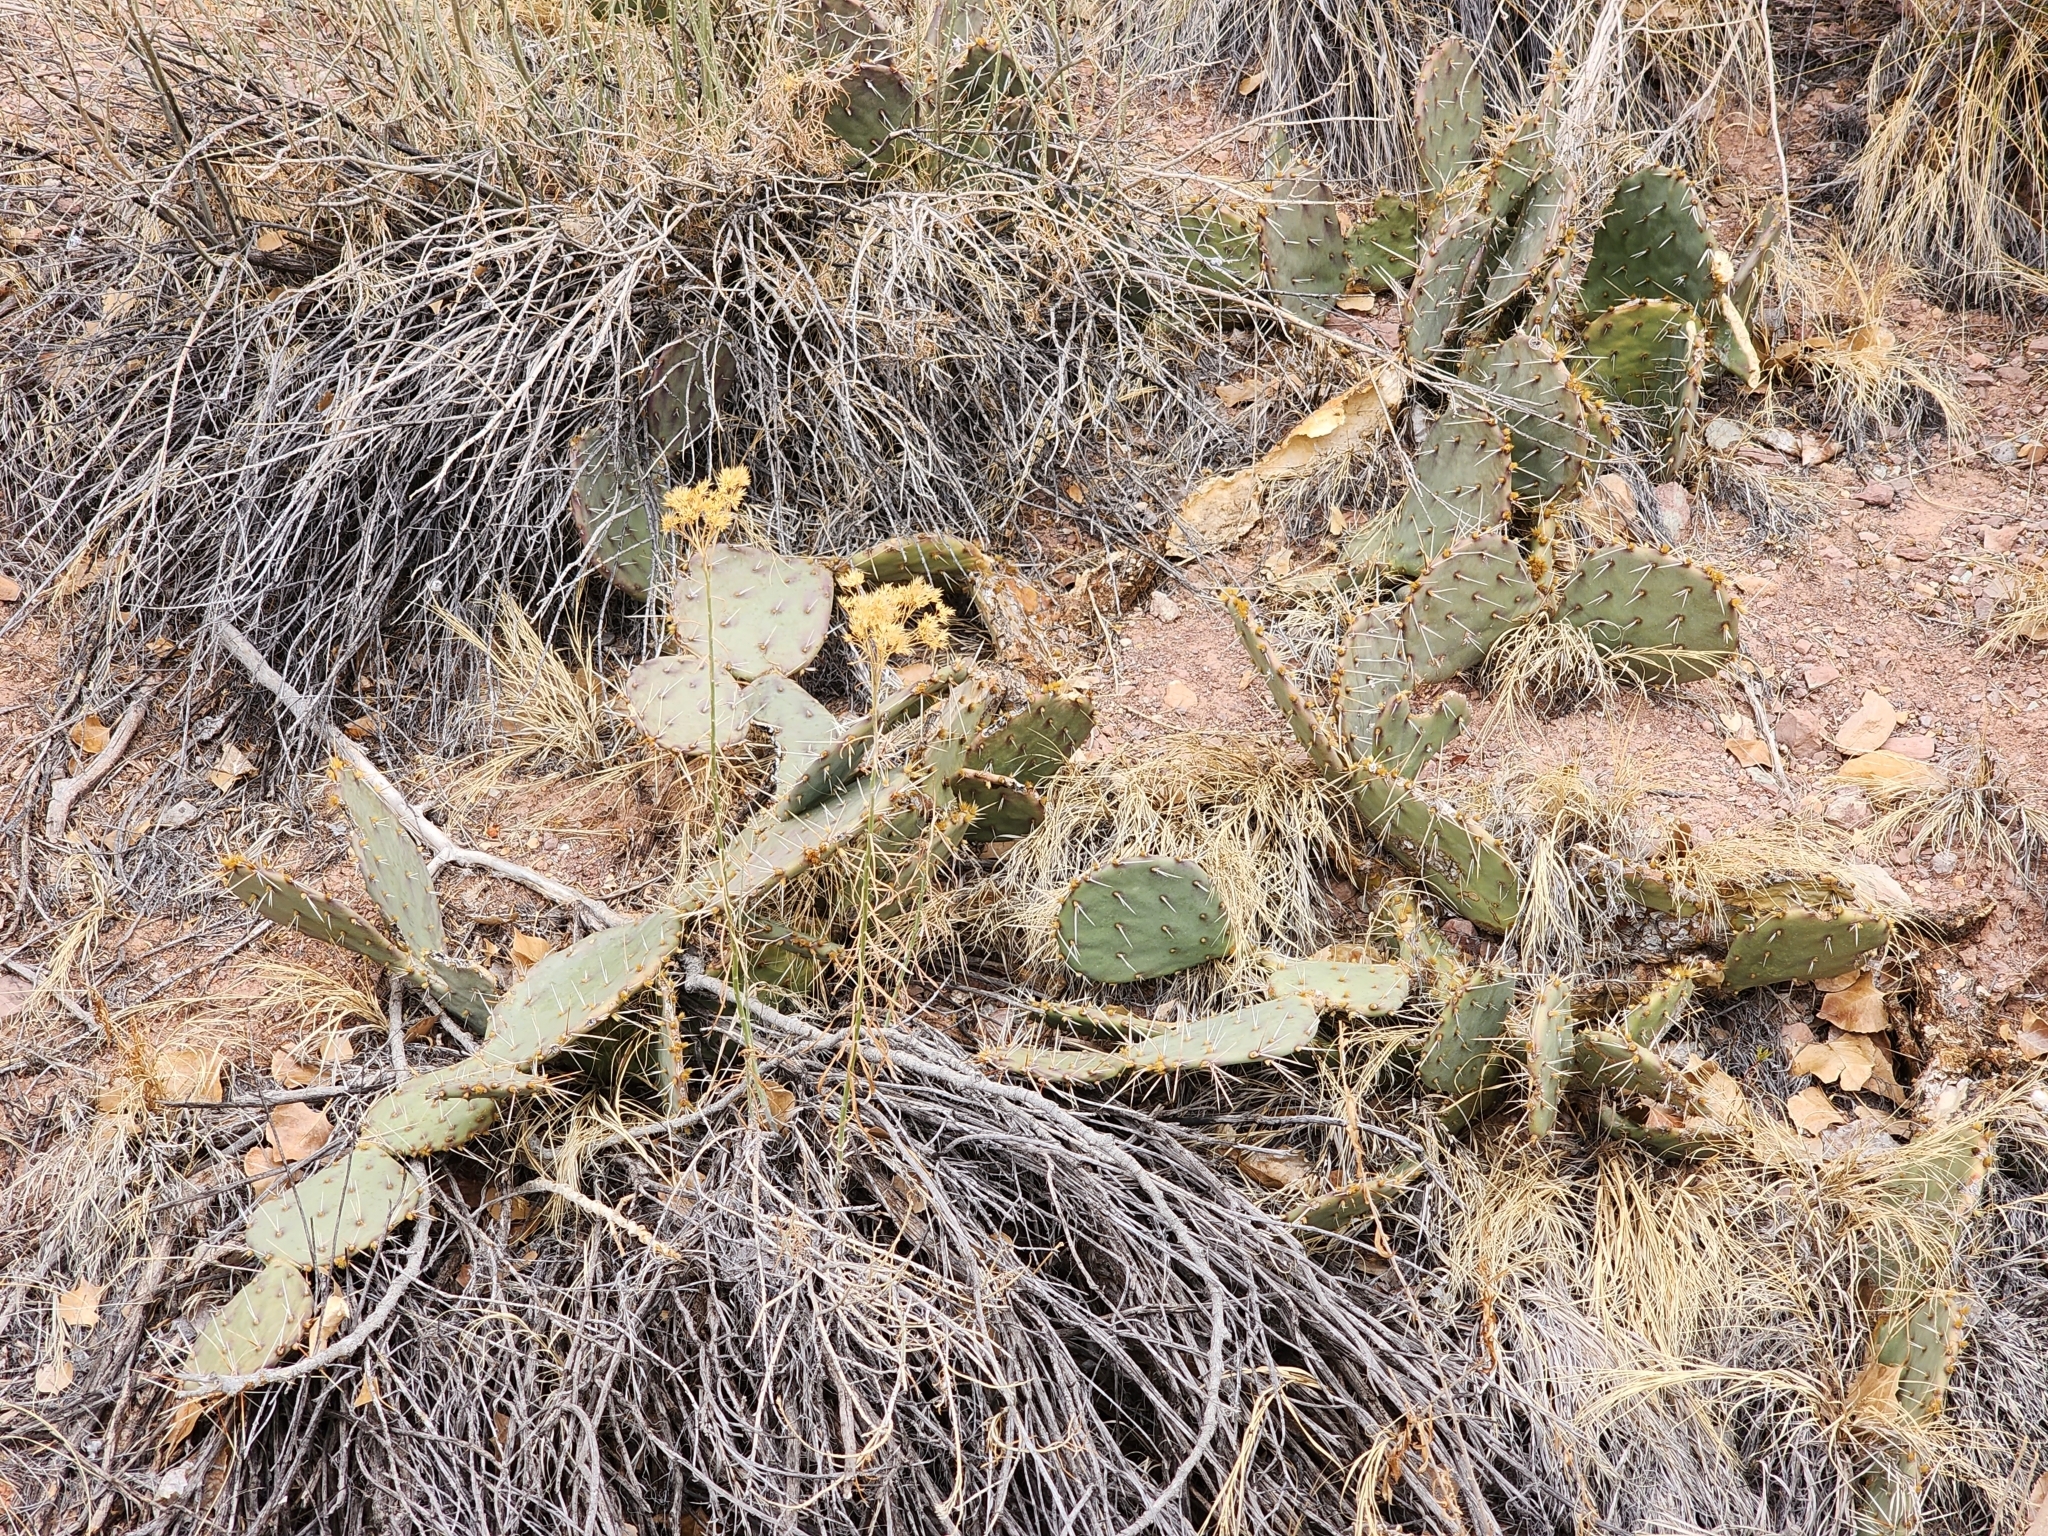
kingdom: Plantae
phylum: Tracheophyta
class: Magnoliopsida
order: Caryophyllales
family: Cactaceae
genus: Opuntia
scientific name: Opuntia phaeacantha
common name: New mexico prickly-pear
